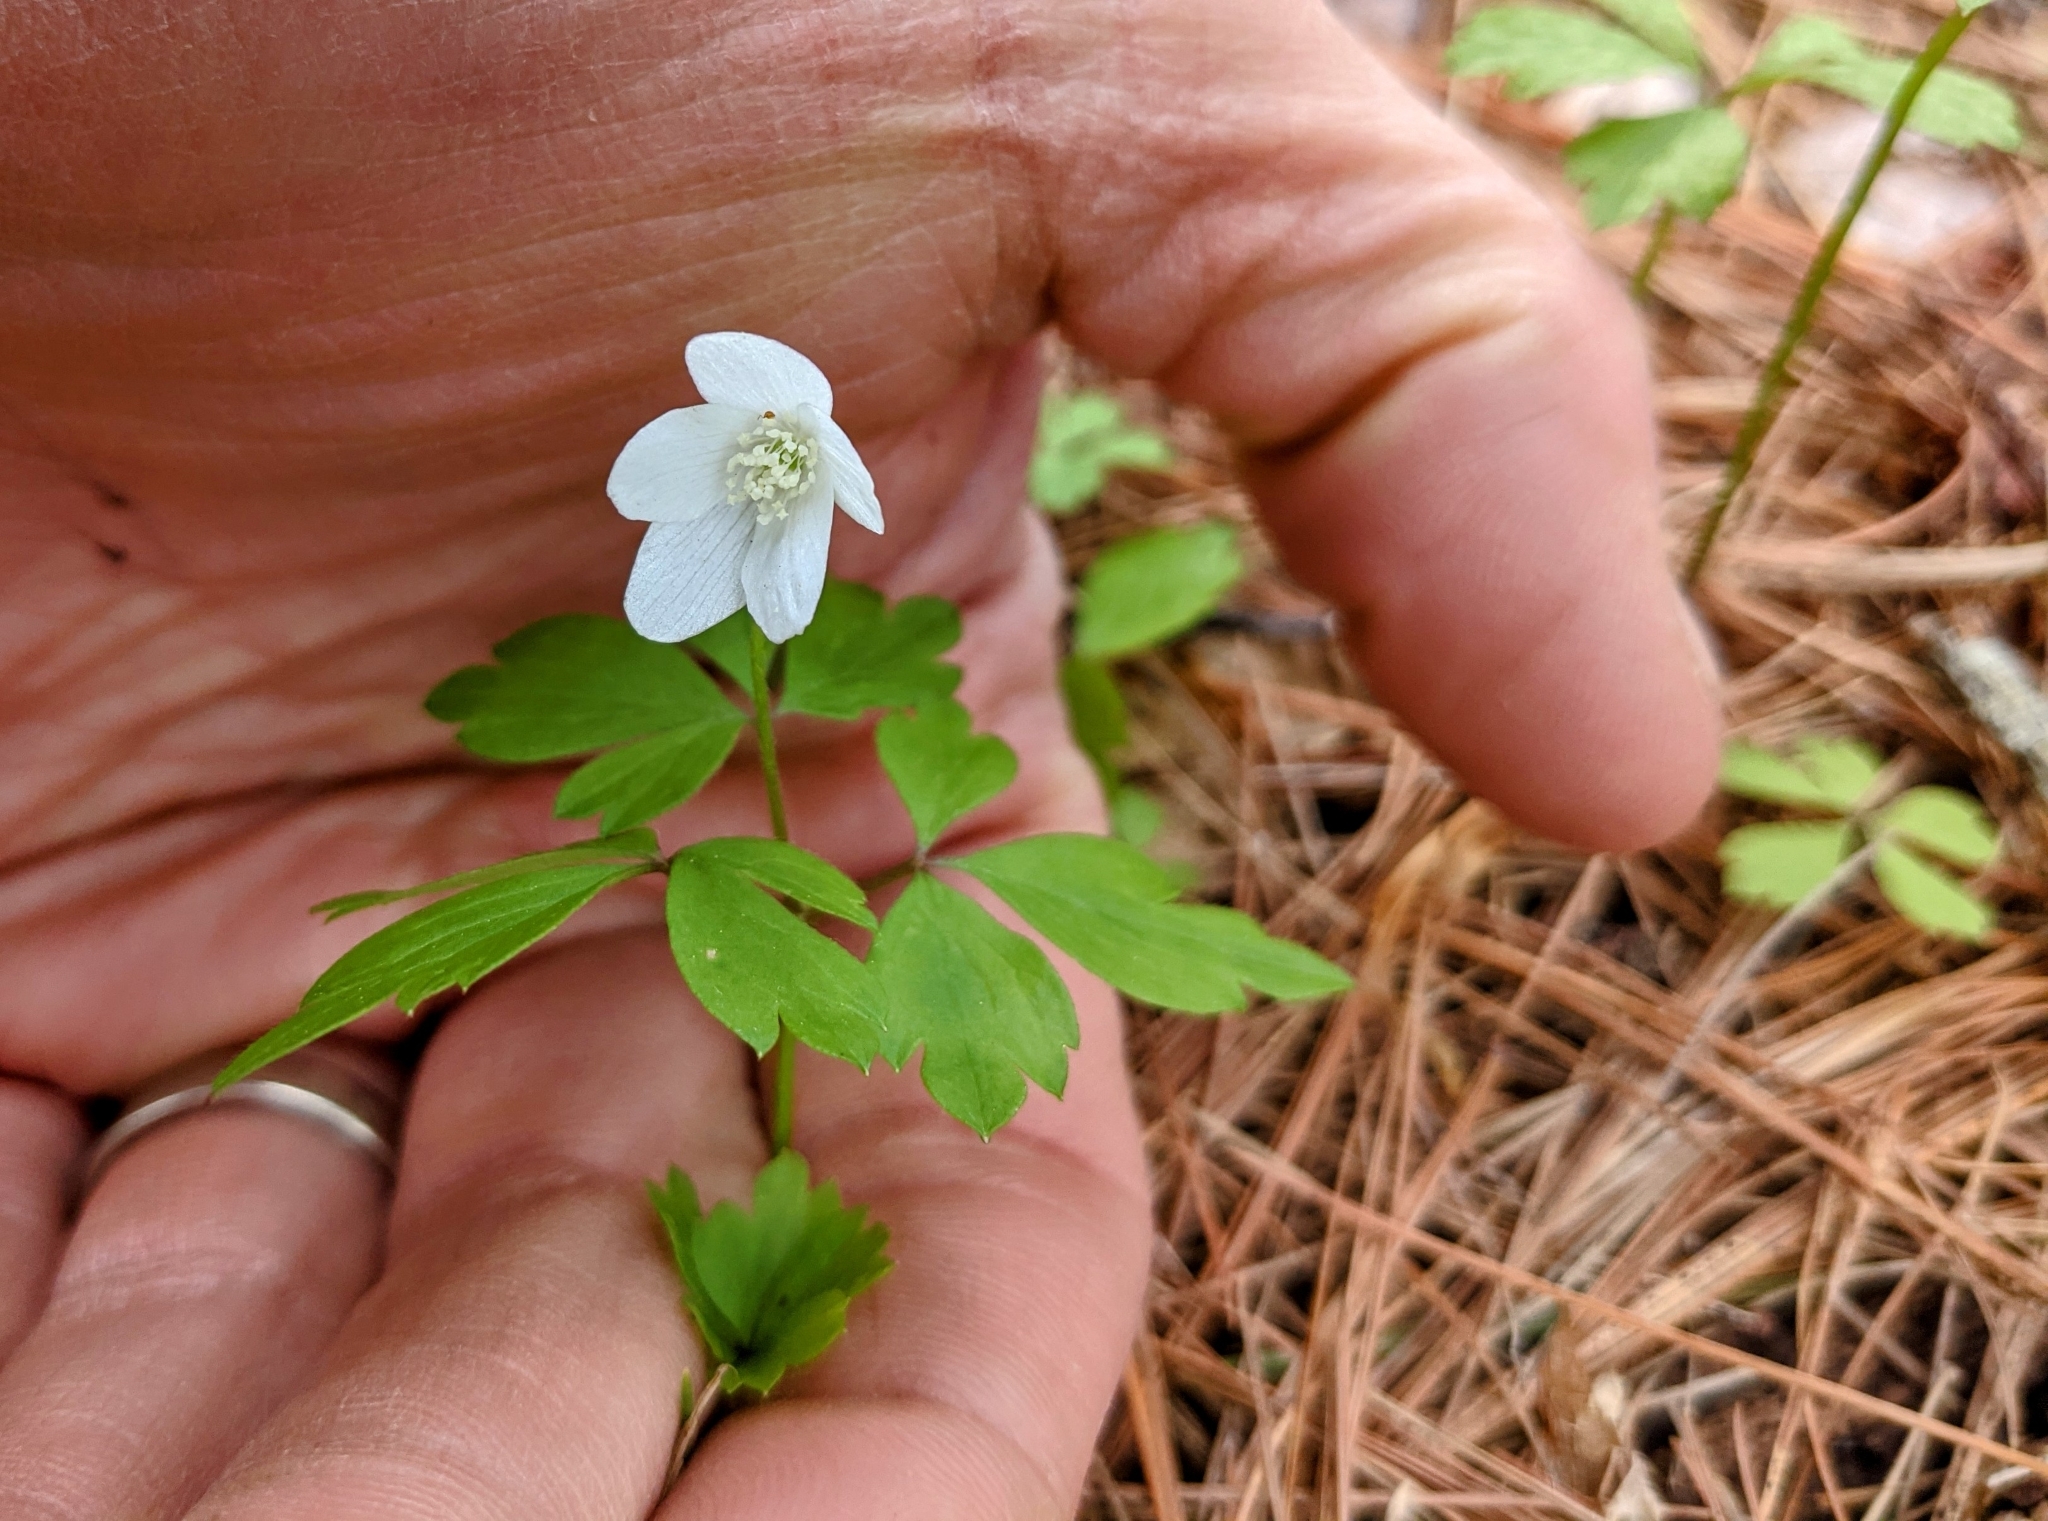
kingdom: Plantae
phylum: Tracheophyta
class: Magnoliopsida
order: Ranunculales
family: Ranunculaceae
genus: Anemone
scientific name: Anemone quinquefolia
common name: Wood anemone
